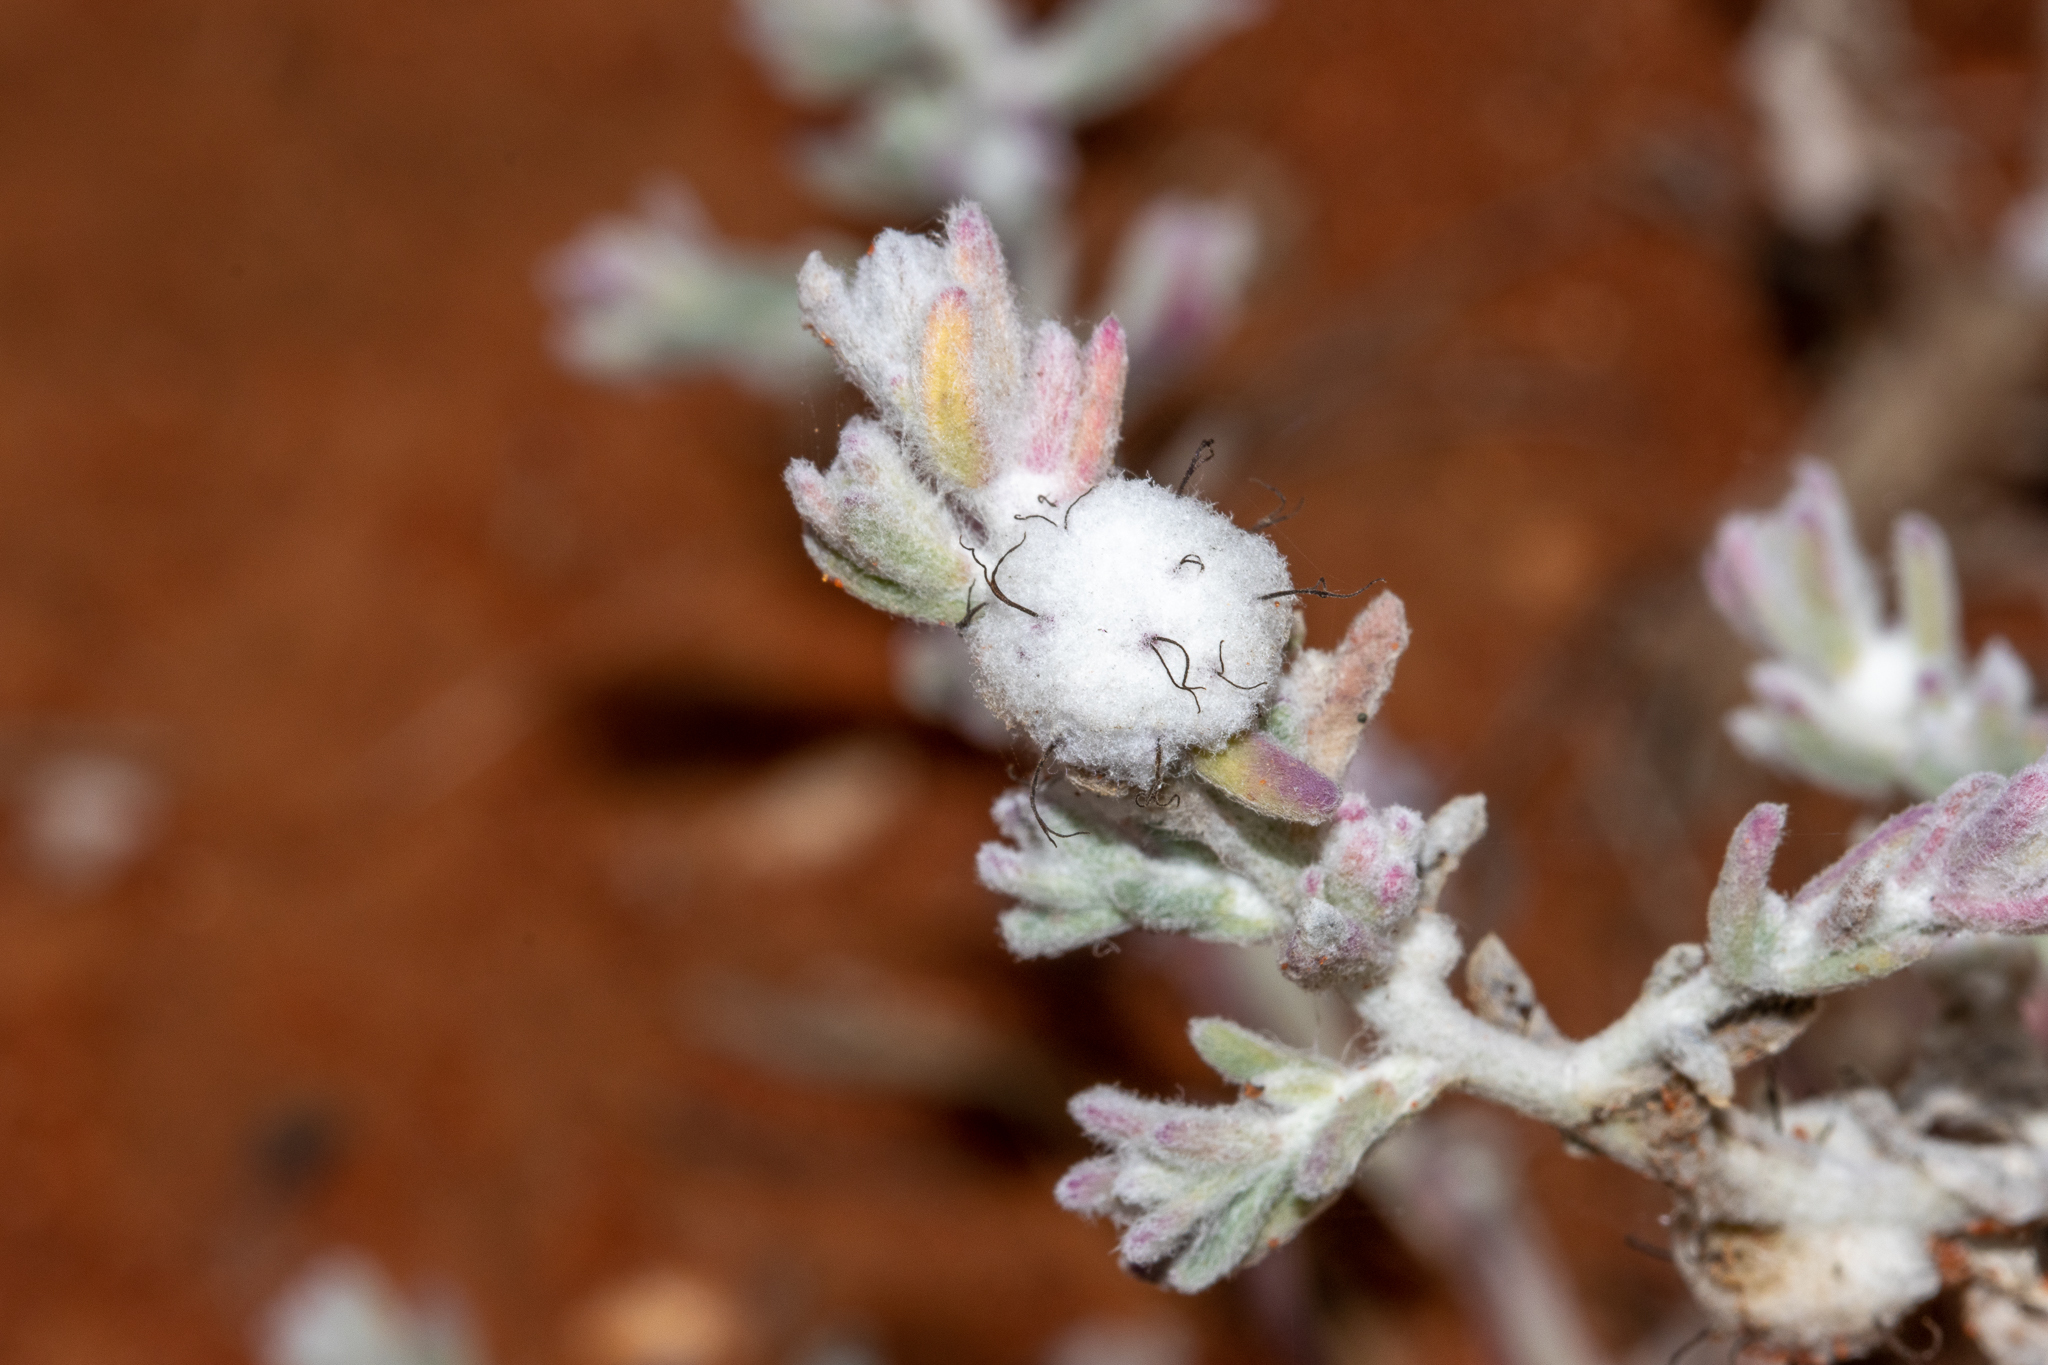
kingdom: Plantae
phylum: Tracheophyta
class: Magnoliopsida
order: Caryophyllales
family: Amaranthaceae
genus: Dissocarpus
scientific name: Dissocarpus paradoxus
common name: Bur-saltbush
